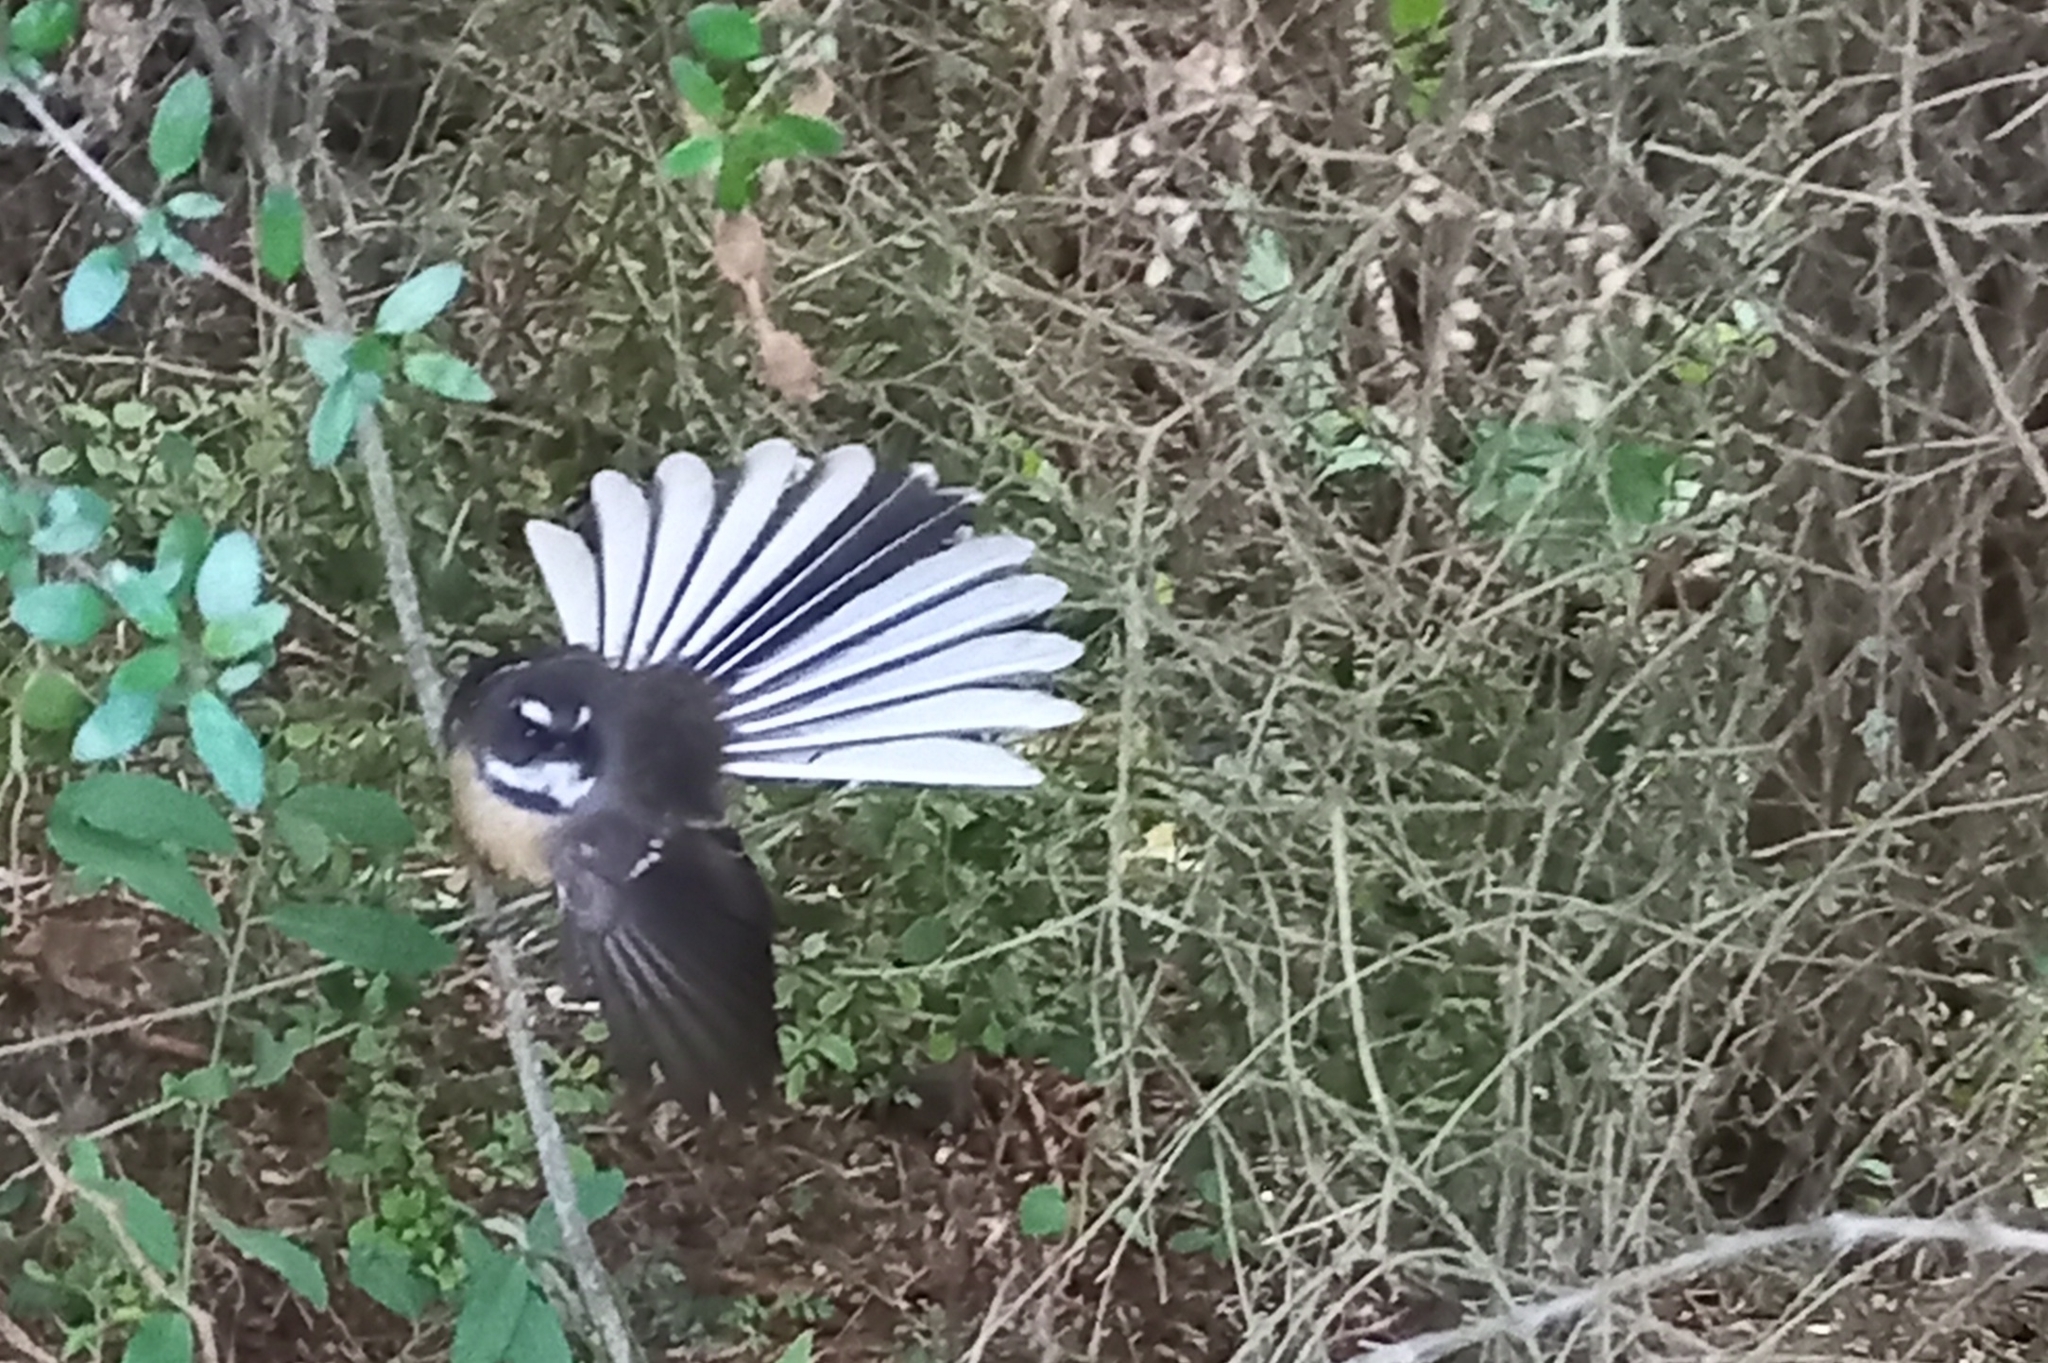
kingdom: Animalia
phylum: Chordata
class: Aves
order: Passeriformes
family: Rhipiduridae
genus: Rhipidura
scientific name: Rhipidura fuliginosa
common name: New zealand fantail
